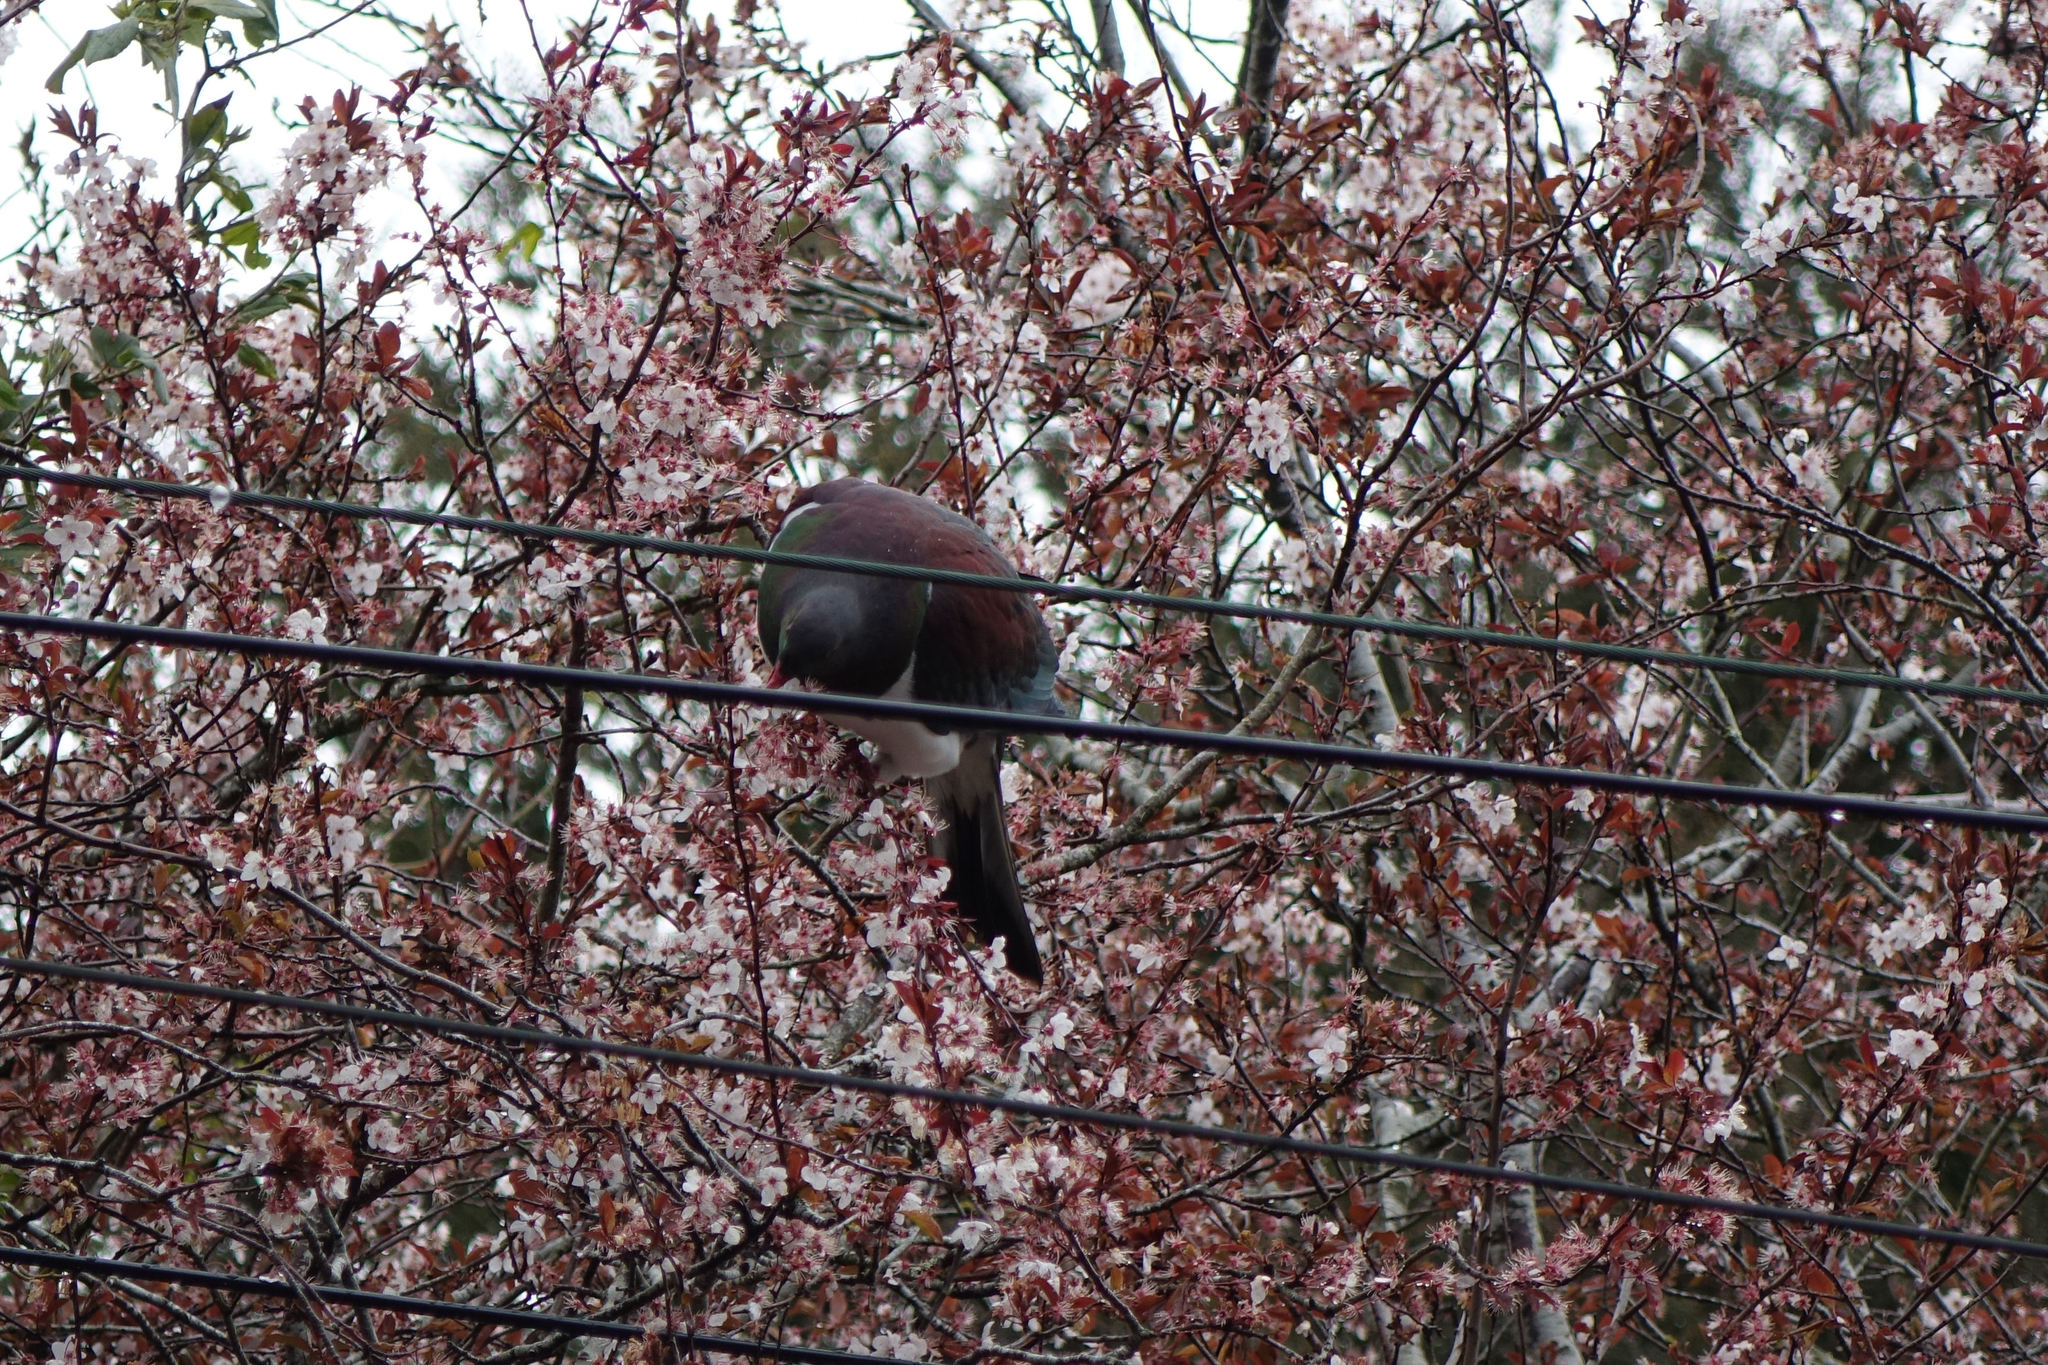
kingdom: Animalia
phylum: Chordata
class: Aves
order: Columbiformes
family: Columbidae
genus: Hemiphaga
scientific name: Hemiphaga novaeseelandiae
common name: New zealand pigeon
